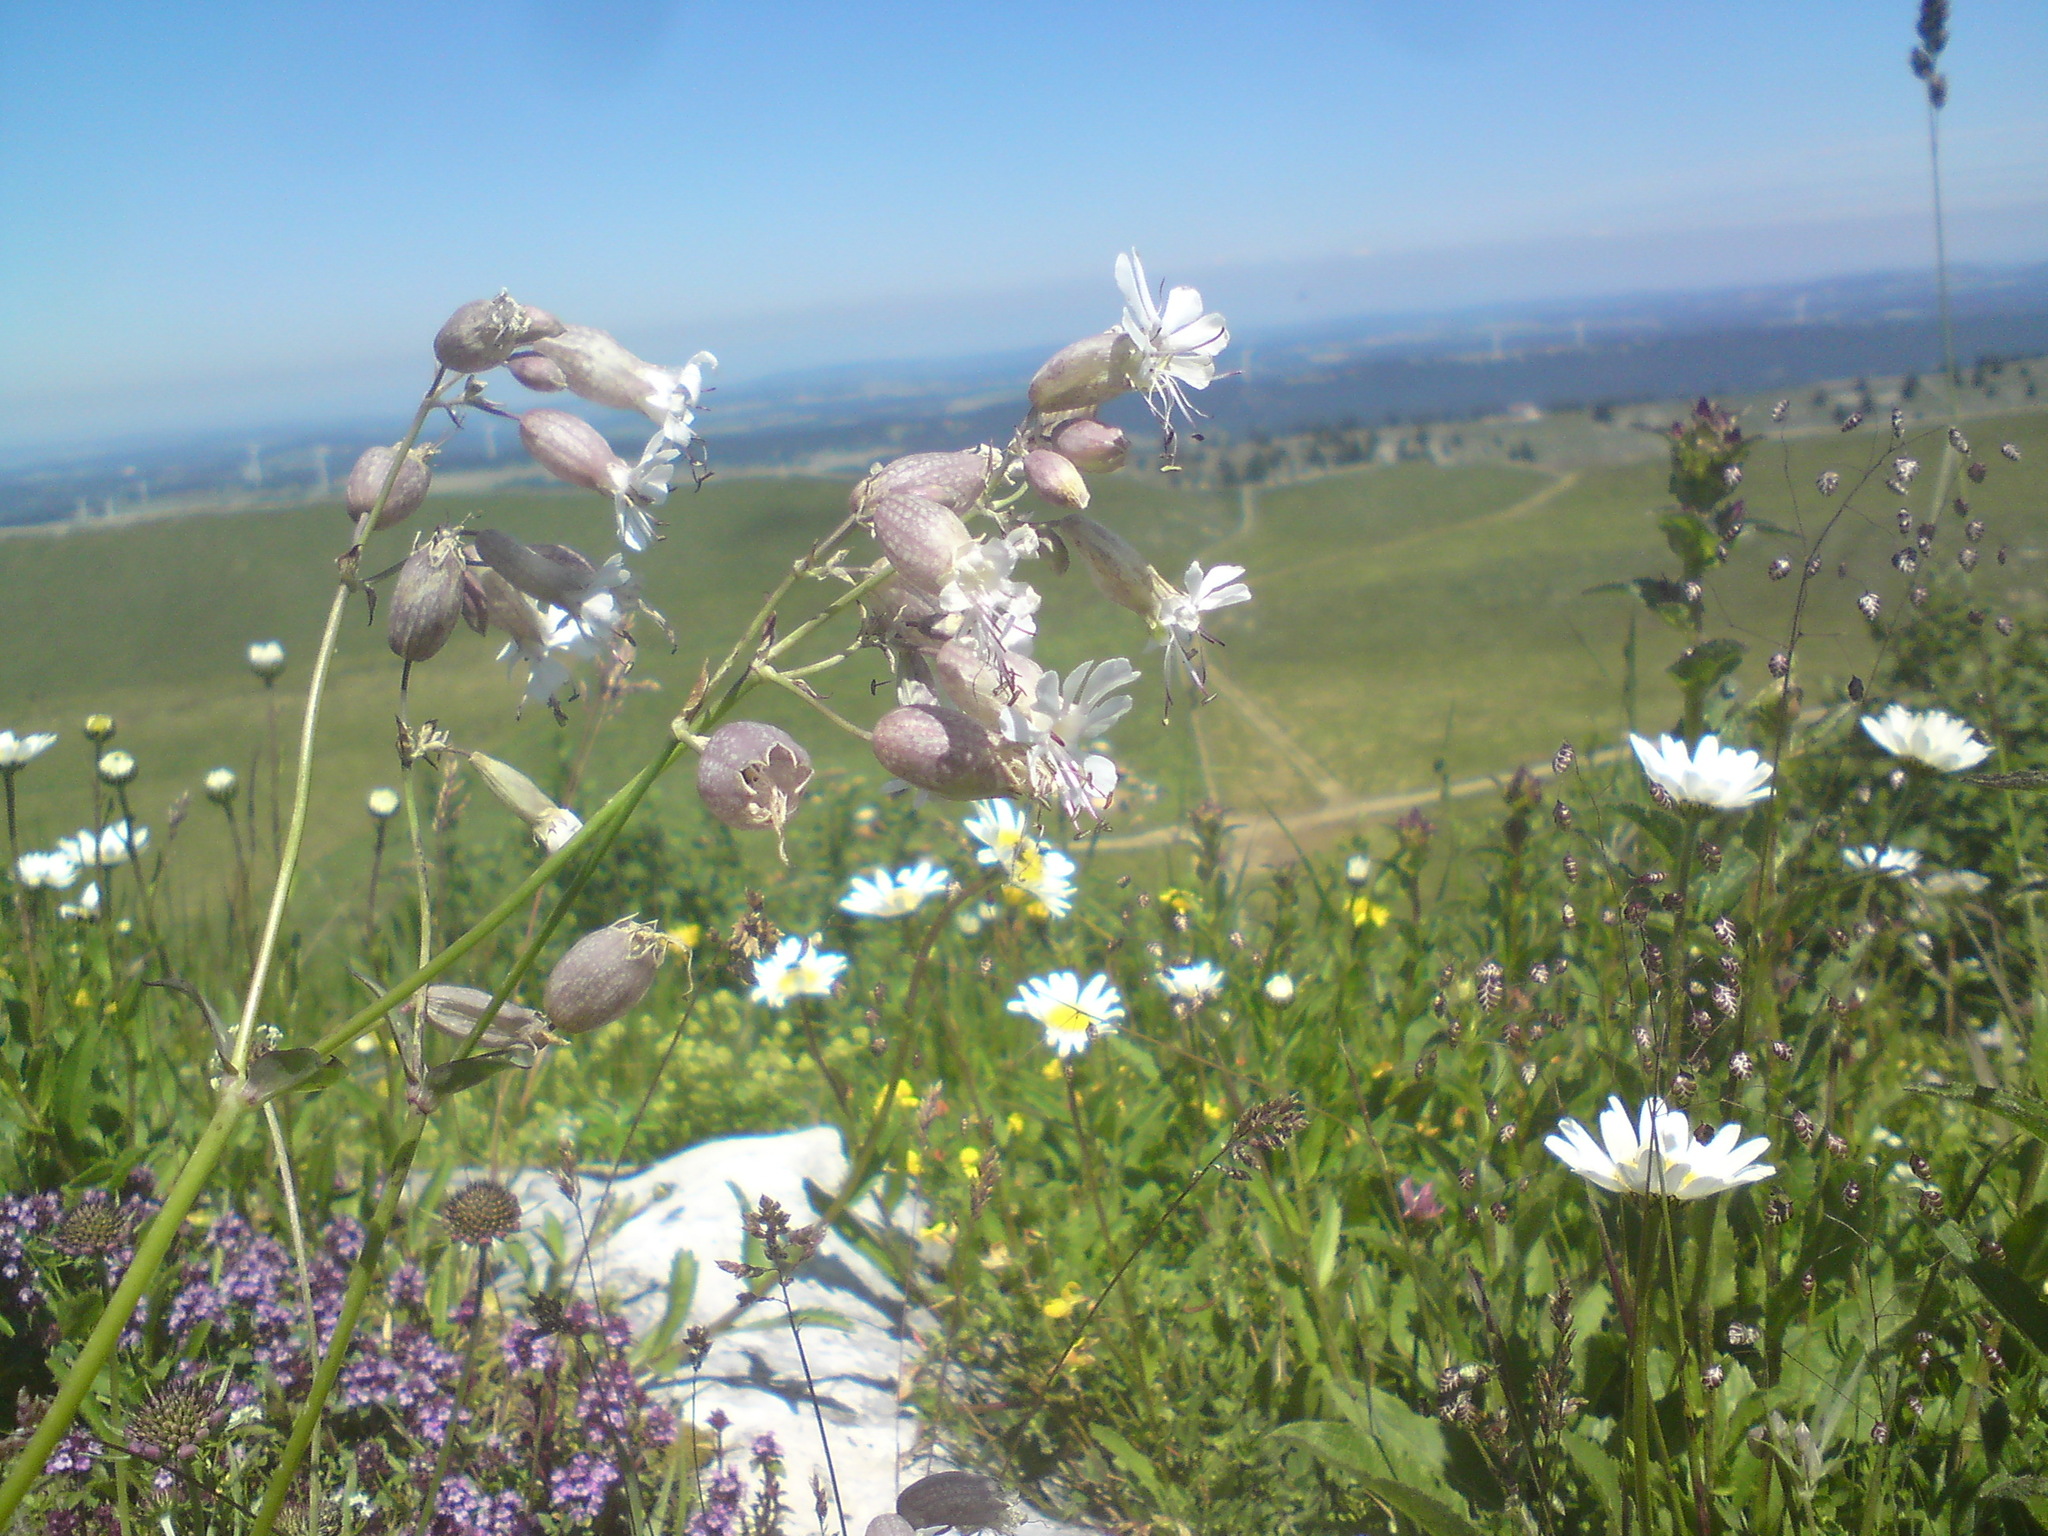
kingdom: Plantae
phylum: Tracheophyta
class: Magnoliopsida
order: Caryophyllales
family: Caryophyllaceae
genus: Silene
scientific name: Silene vulgaris
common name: Bladder campion
